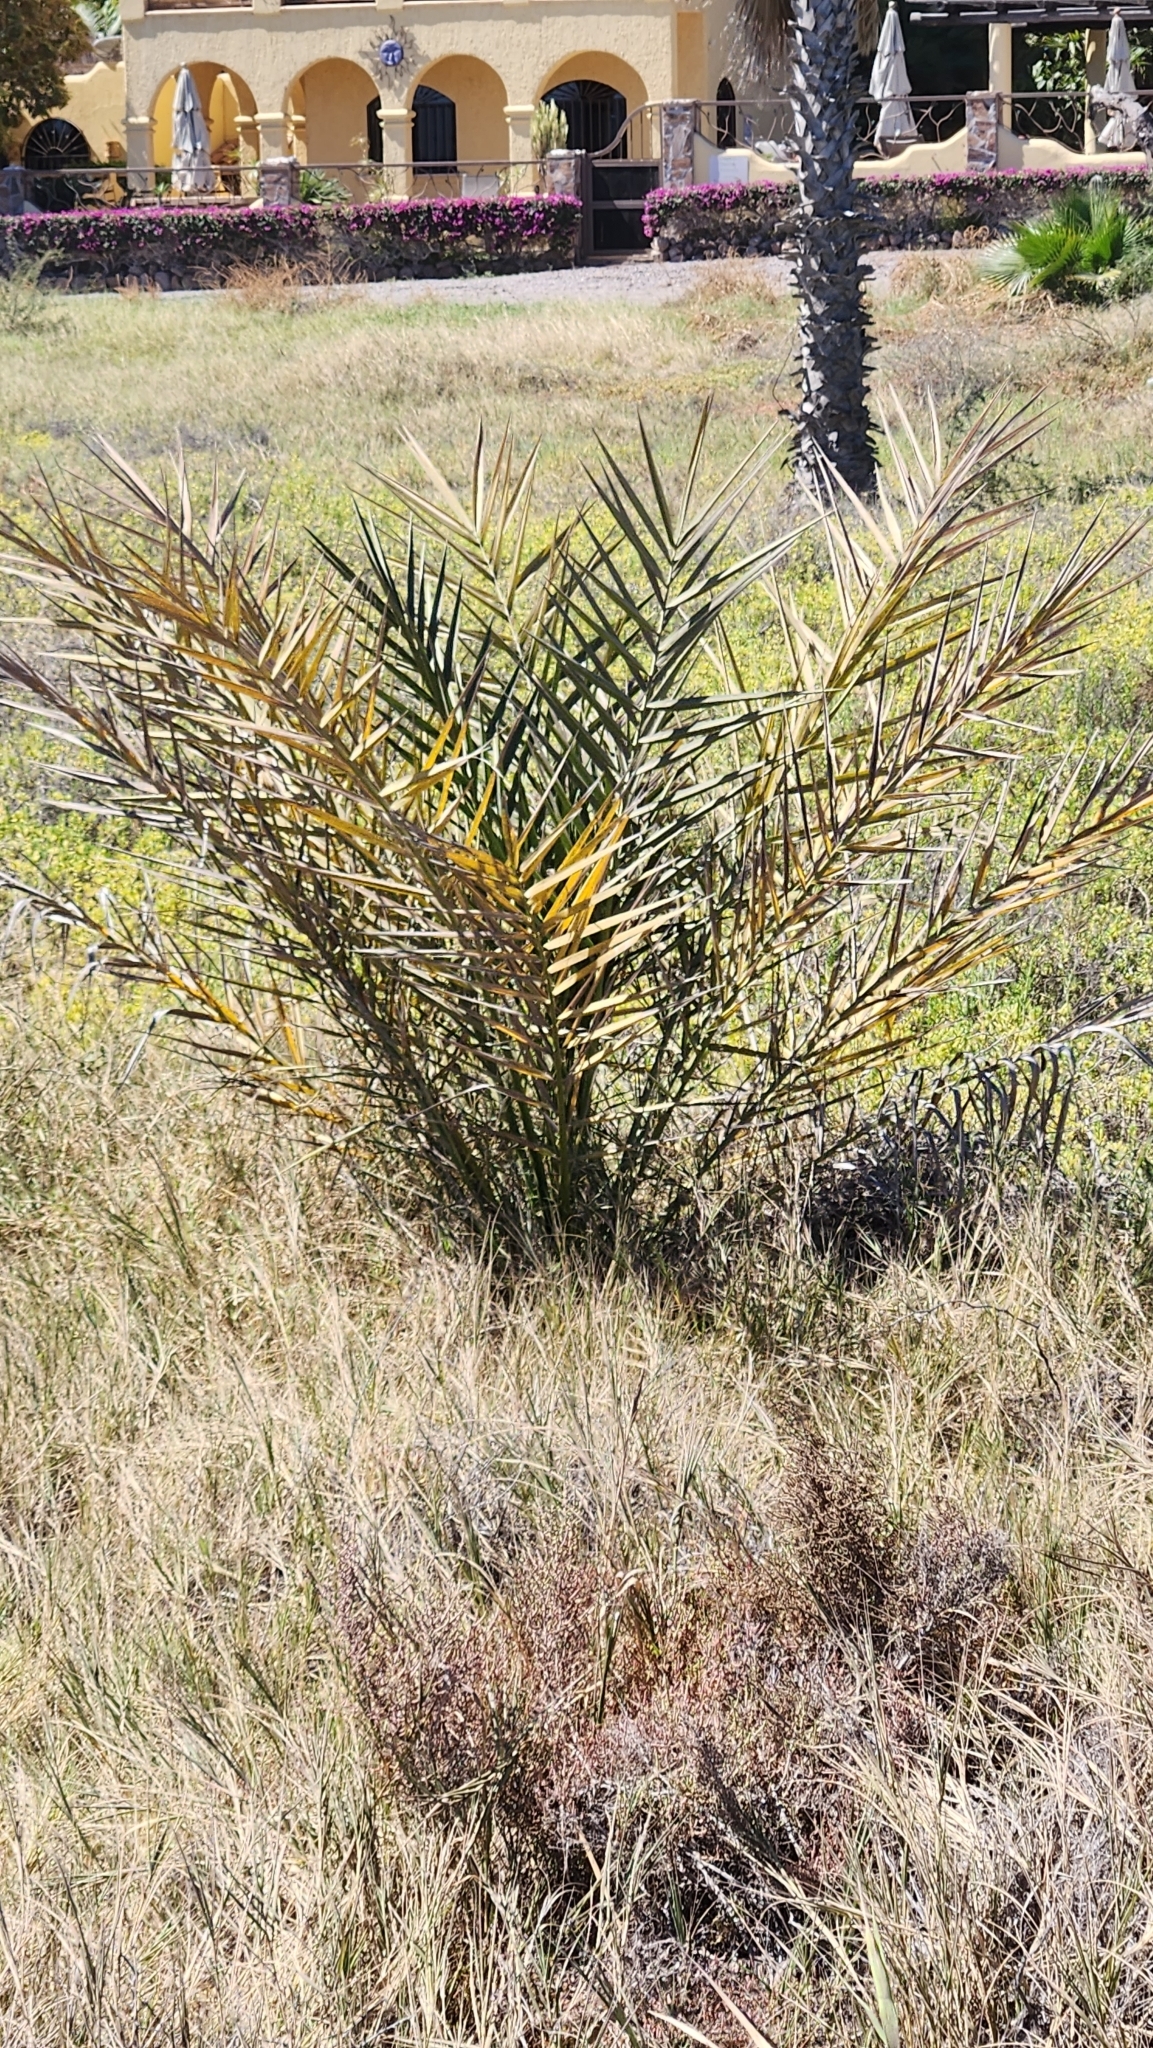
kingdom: Plantae
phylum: Tracheophyta
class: Liliopsida
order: Arecales
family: Arecaceae
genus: Phoenix
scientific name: Phoenix dactylifera
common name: Date palm
